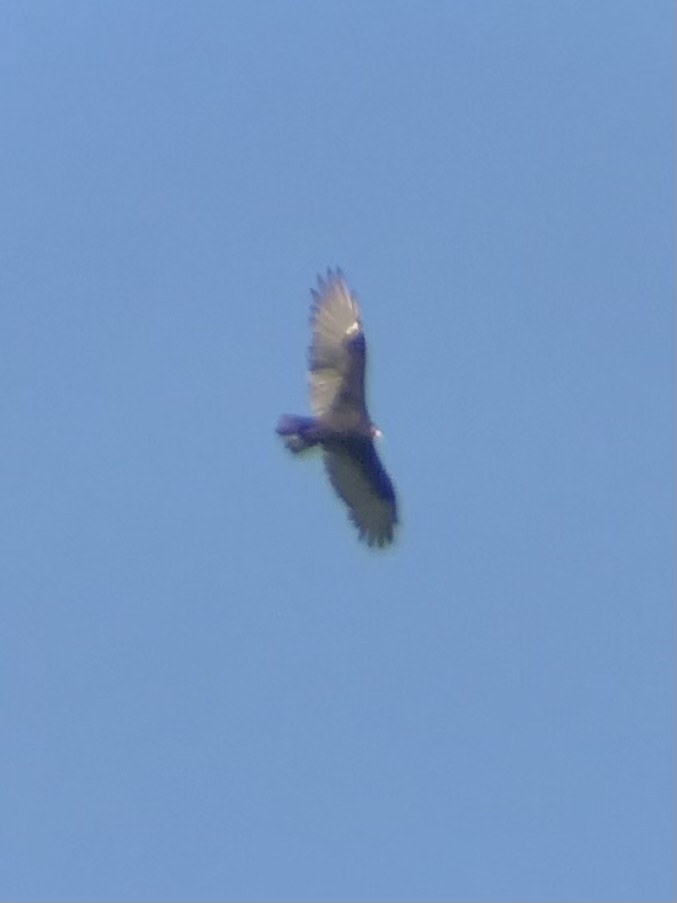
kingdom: Animalia
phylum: Chordata
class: Aves
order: Accipitriformes
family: Cathartidae
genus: Cathartes
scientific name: Cathartes aura
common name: Turkey vulture
